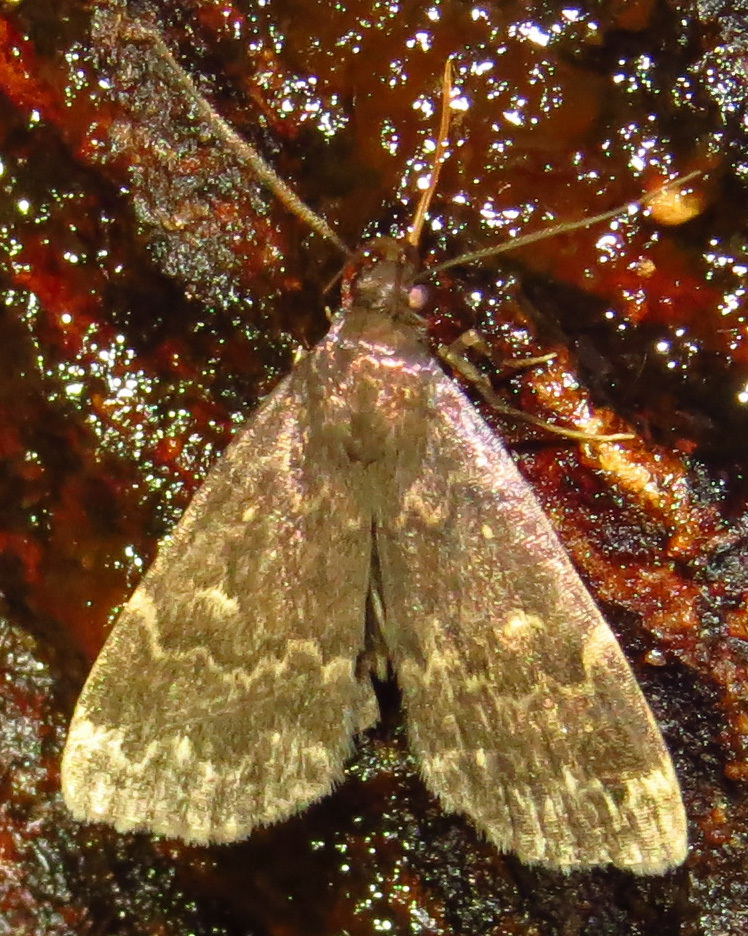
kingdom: Animalia
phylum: Arthropoda
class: Insecta
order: Lepidoptera
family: Erebidae
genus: Idia
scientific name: Idia lubricalis
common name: Twin-striped tabby
